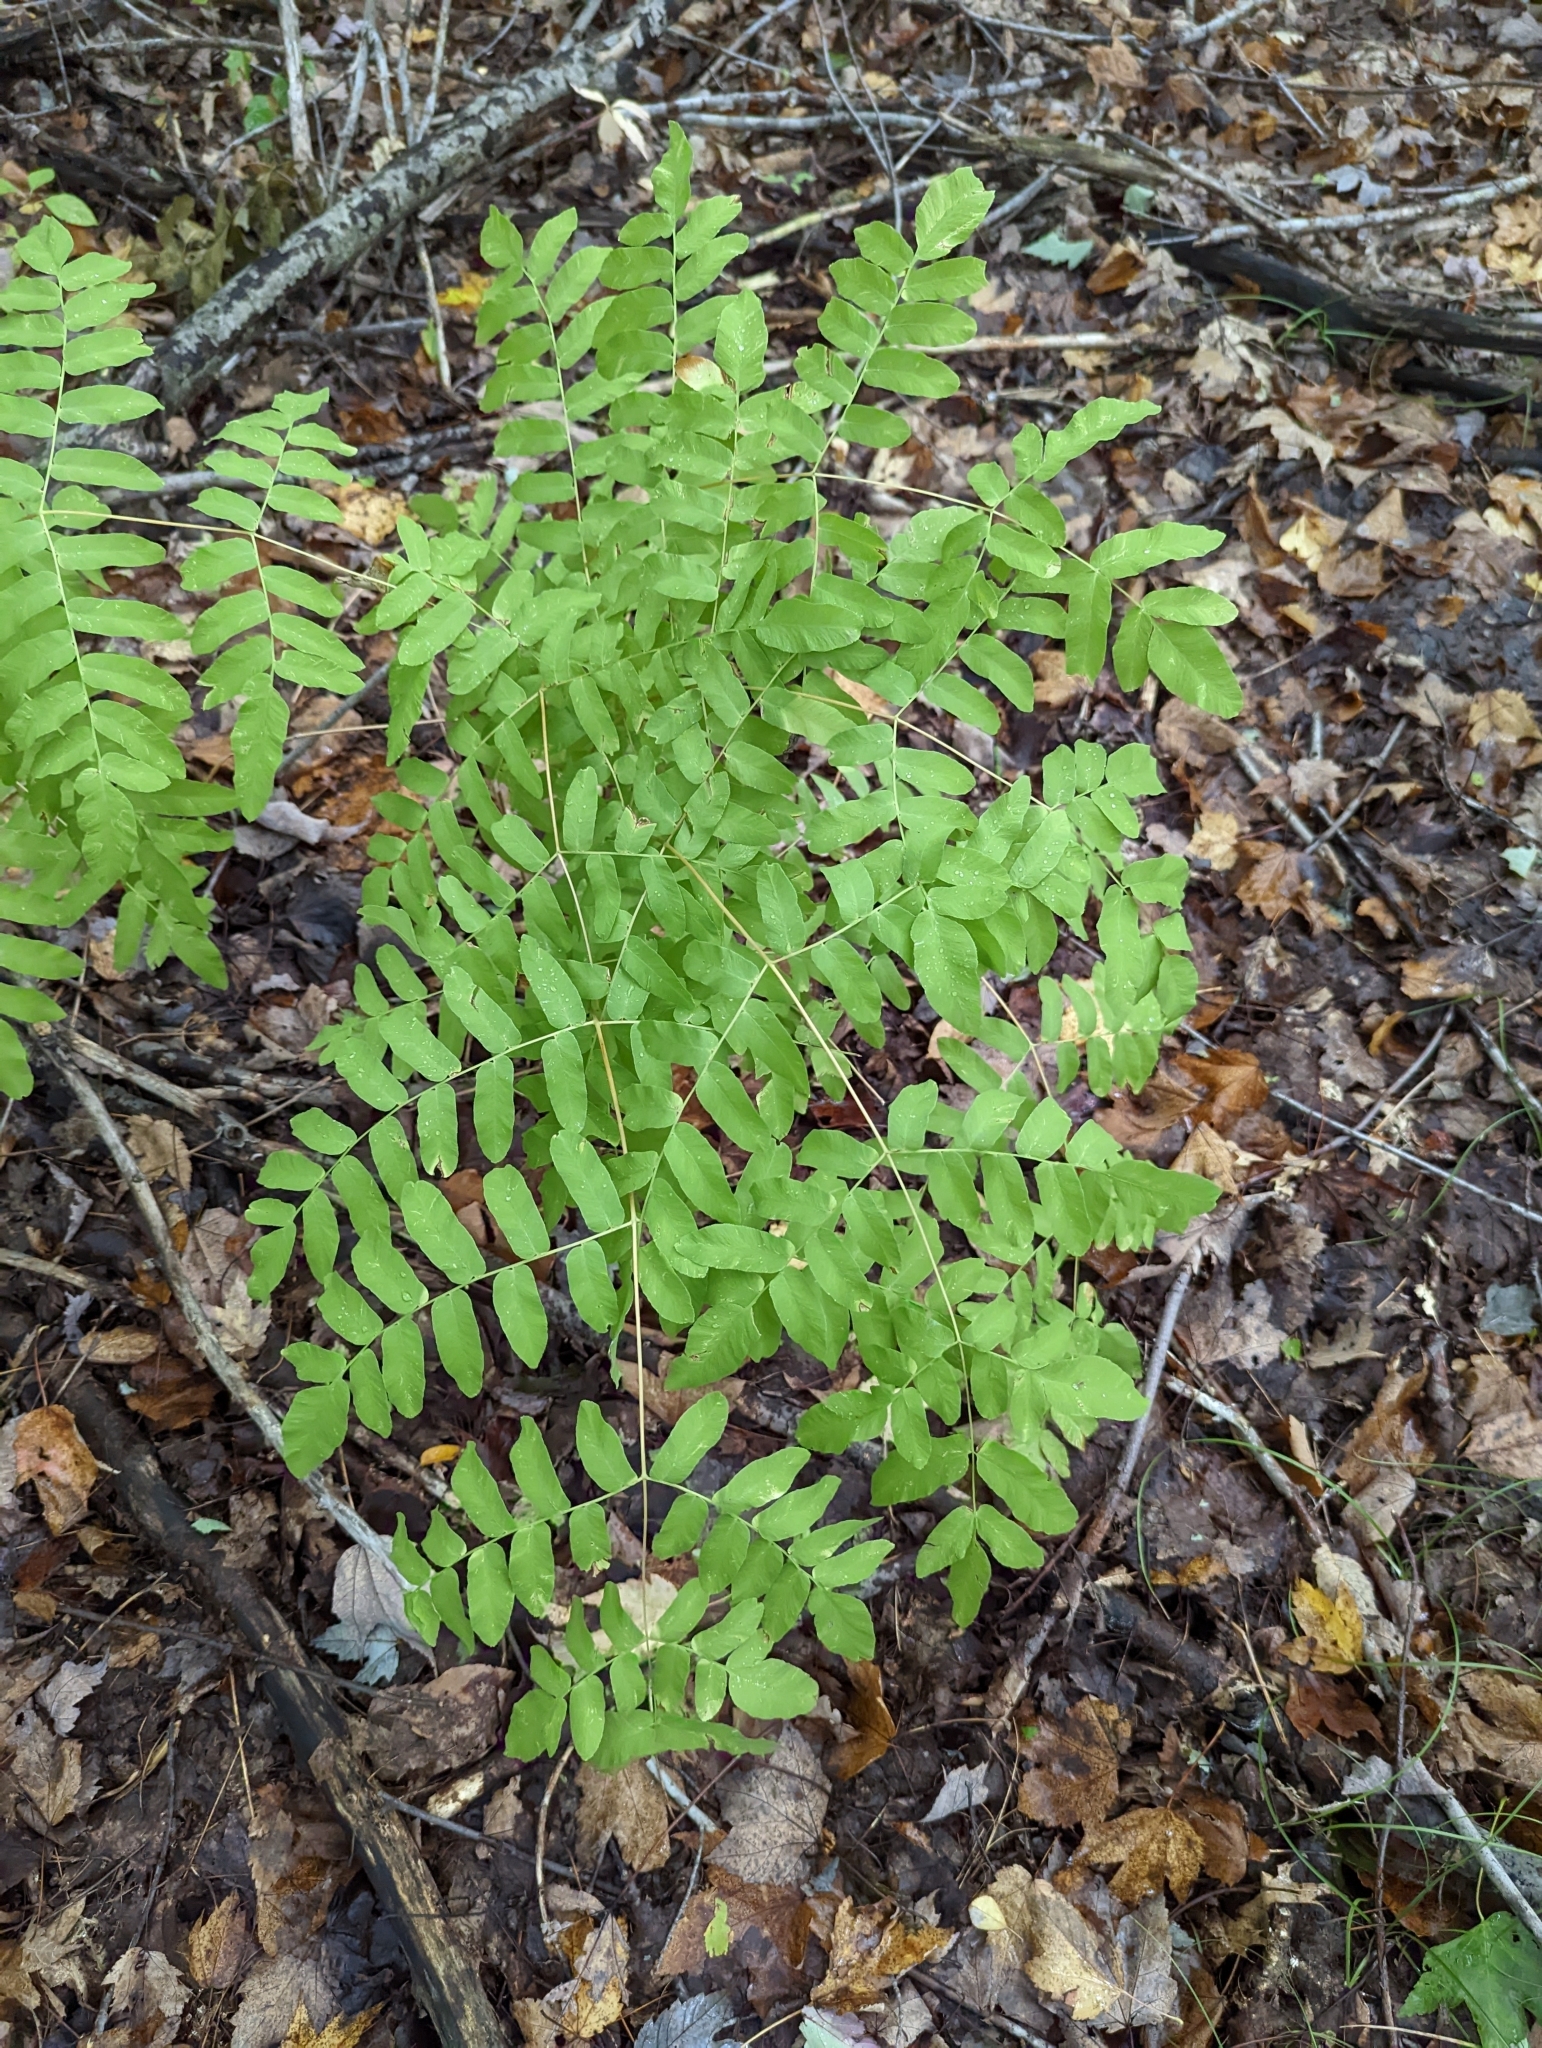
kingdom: Plantae
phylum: Tracheophyta
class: Polypodiopsida
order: Osmundales
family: Osmundaceae
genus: Osmunda
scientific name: Osmunda spectabilis
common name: American royal fern
